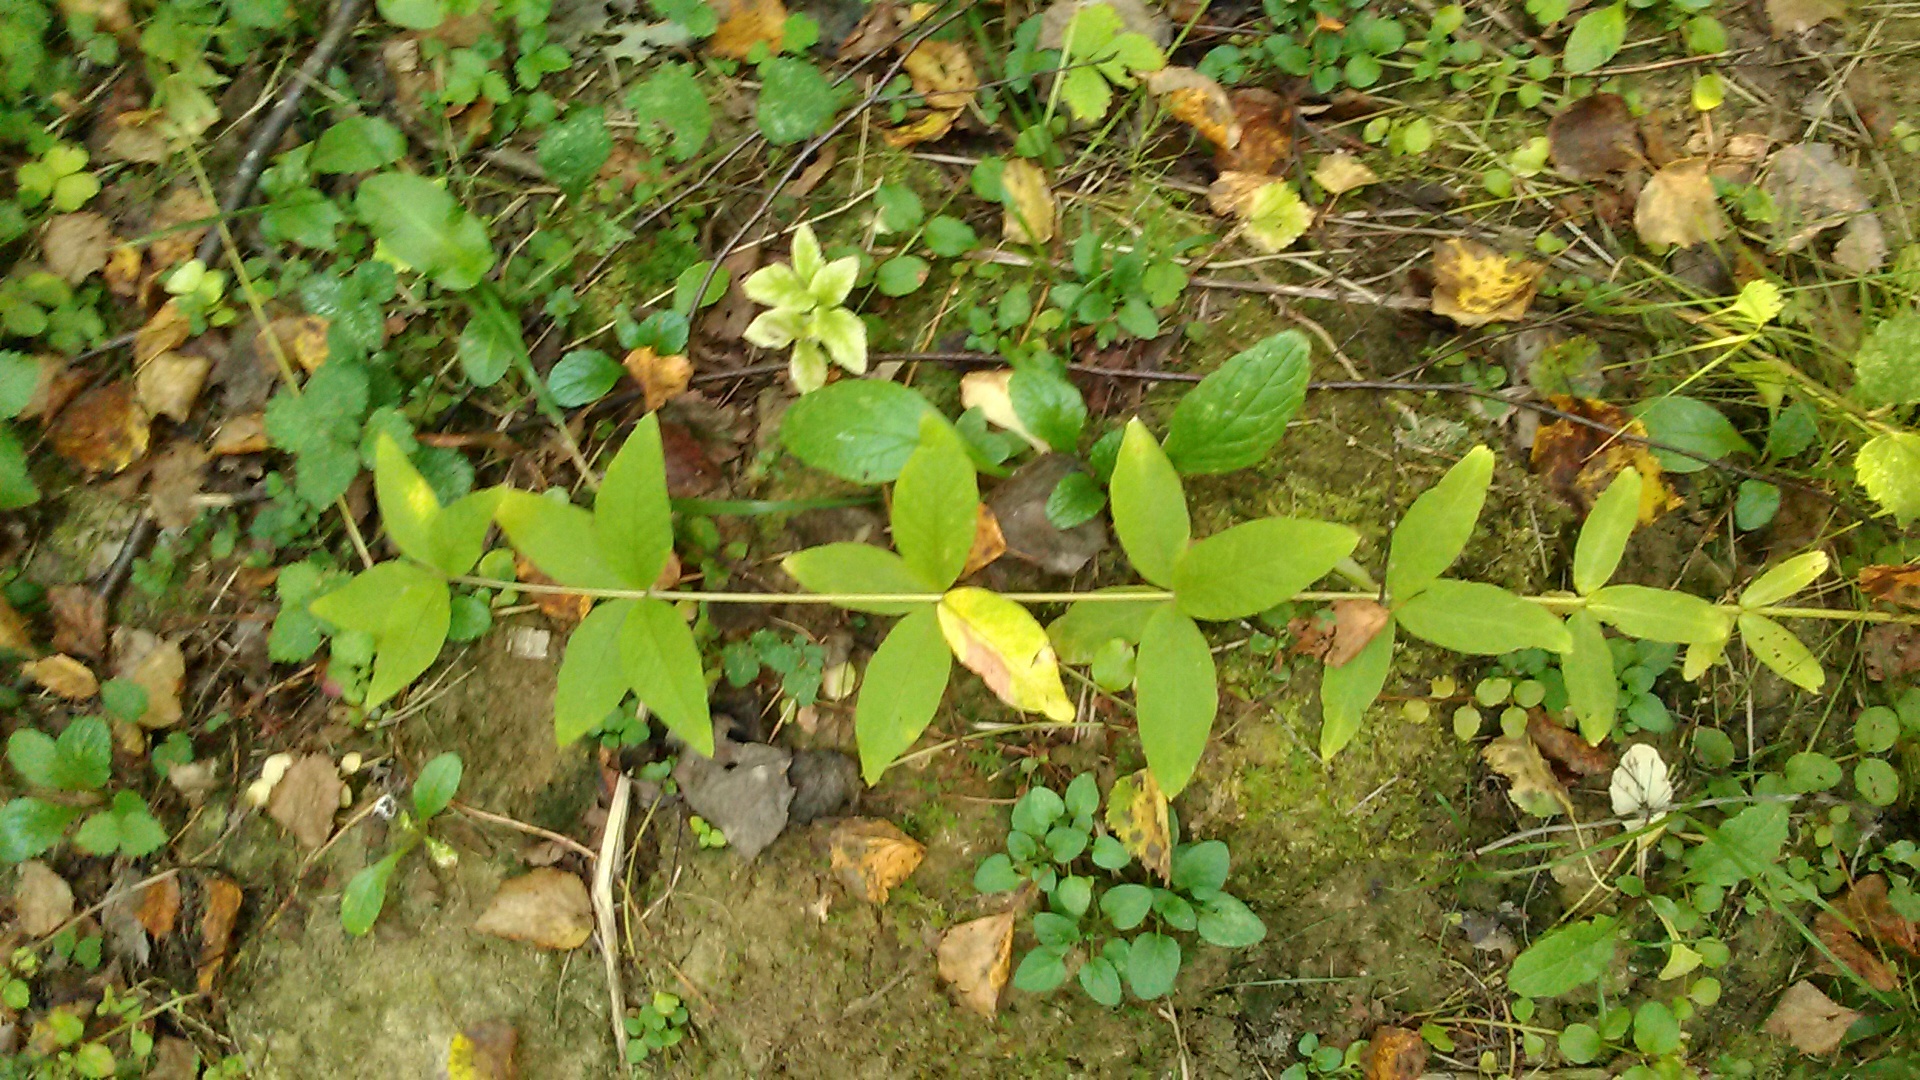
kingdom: Plantae
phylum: Tracheophyta
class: Magnoliopsida
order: Ericales
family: Primulaceae
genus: Lysimachia
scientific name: Lysimachia vulgaris
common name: Yellow loosestrife
